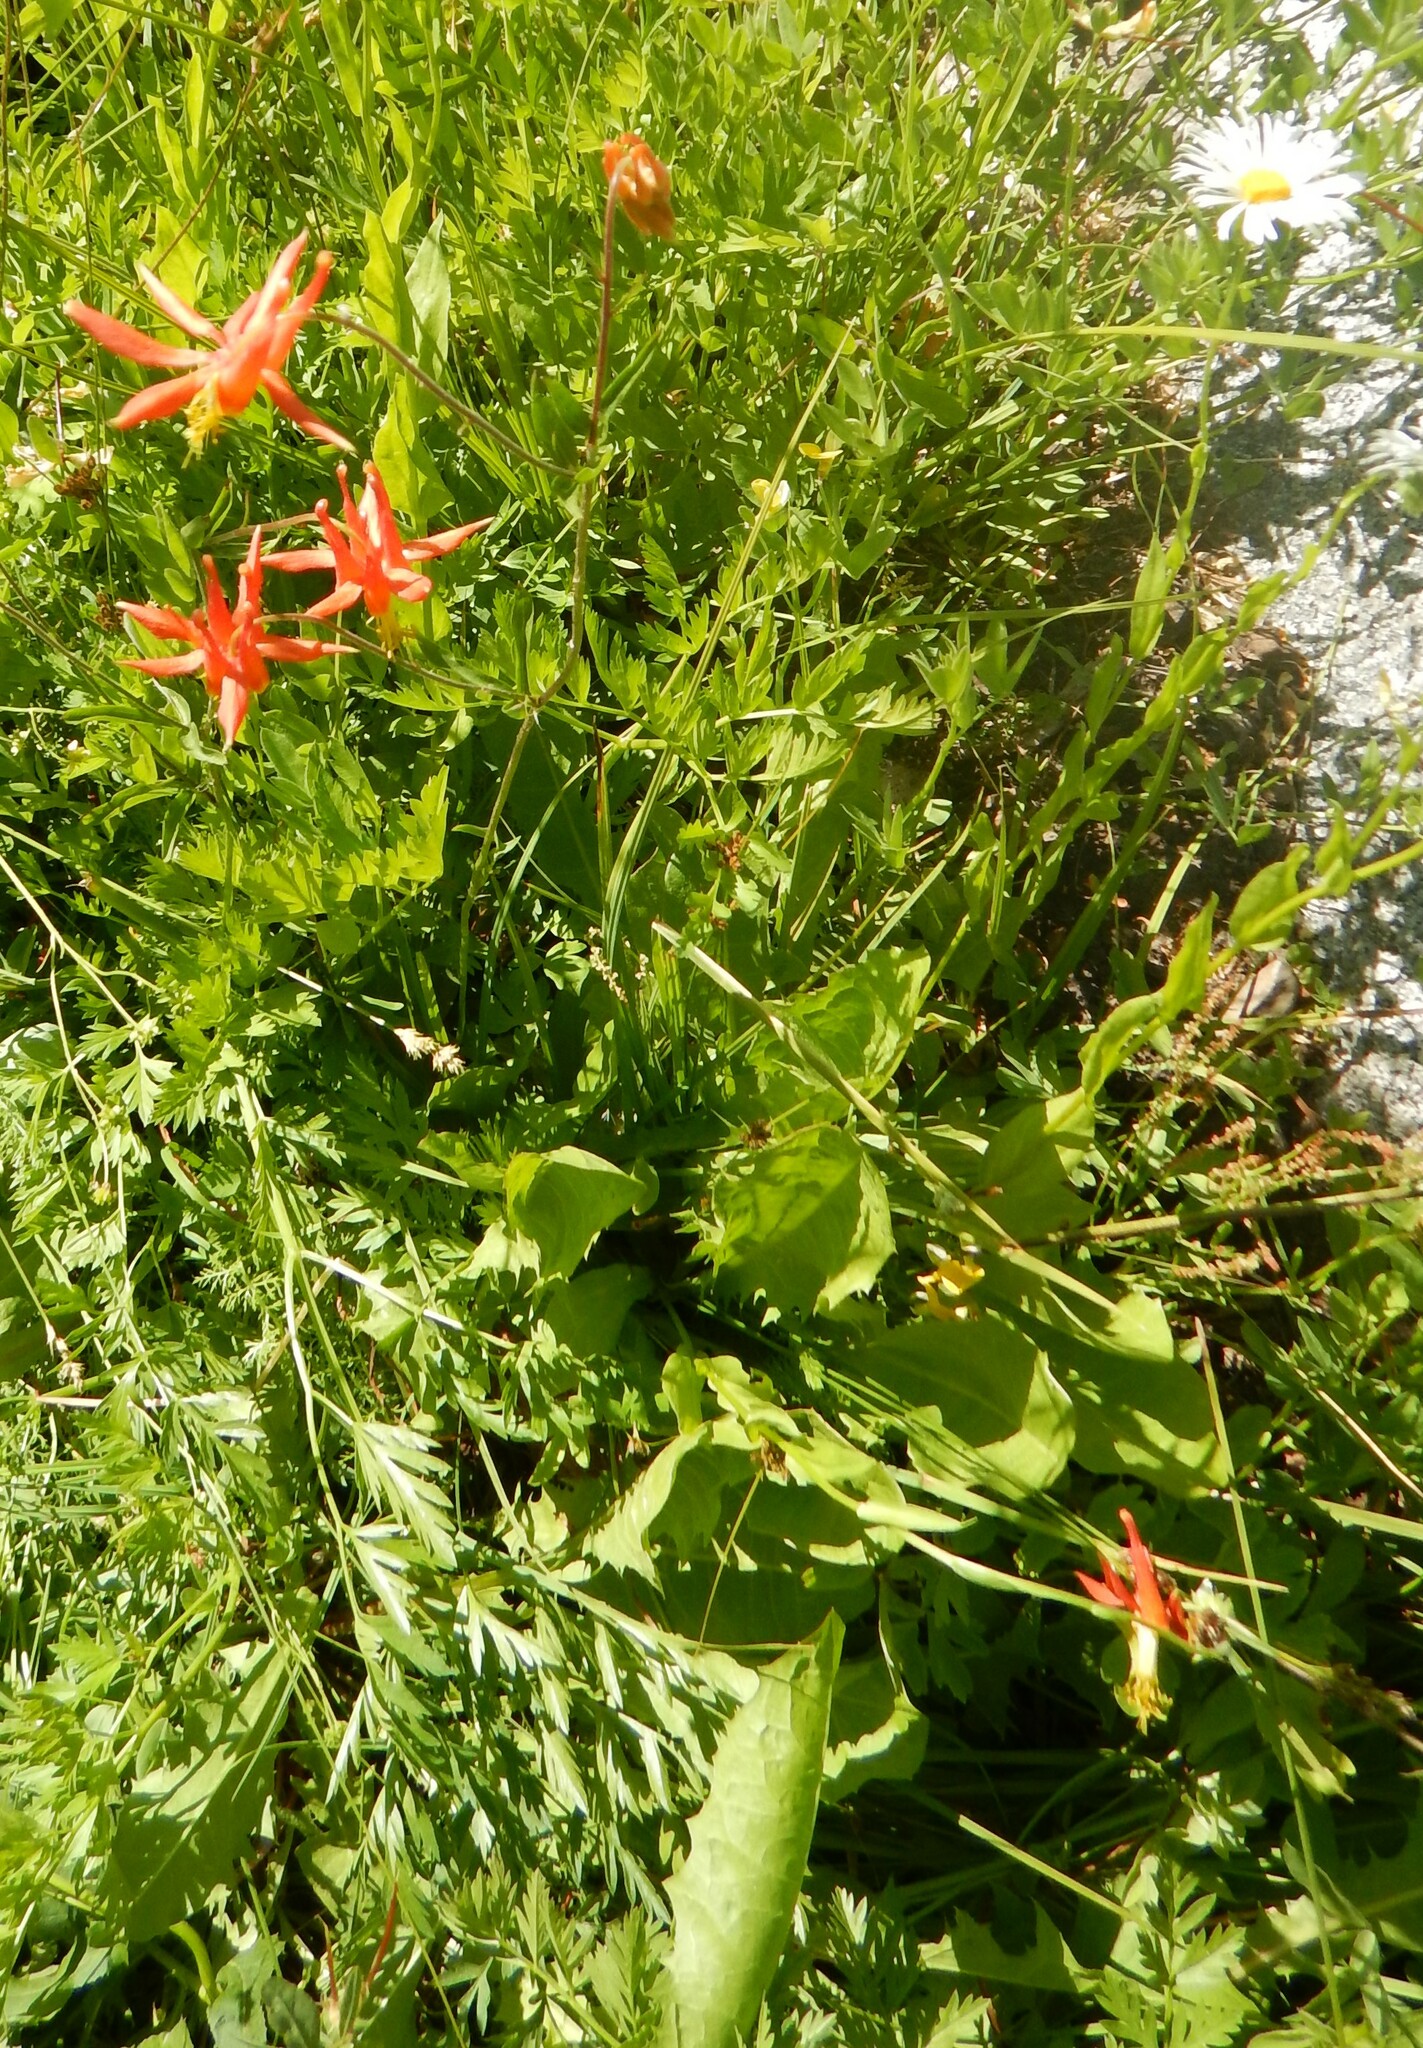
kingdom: Plantae
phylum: Tracheophyta
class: Magnoliopsida
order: Ranunculales
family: Ranunculaceae
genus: Aquilegia
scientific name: Aquilegia formosa
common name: Sitka columbine
